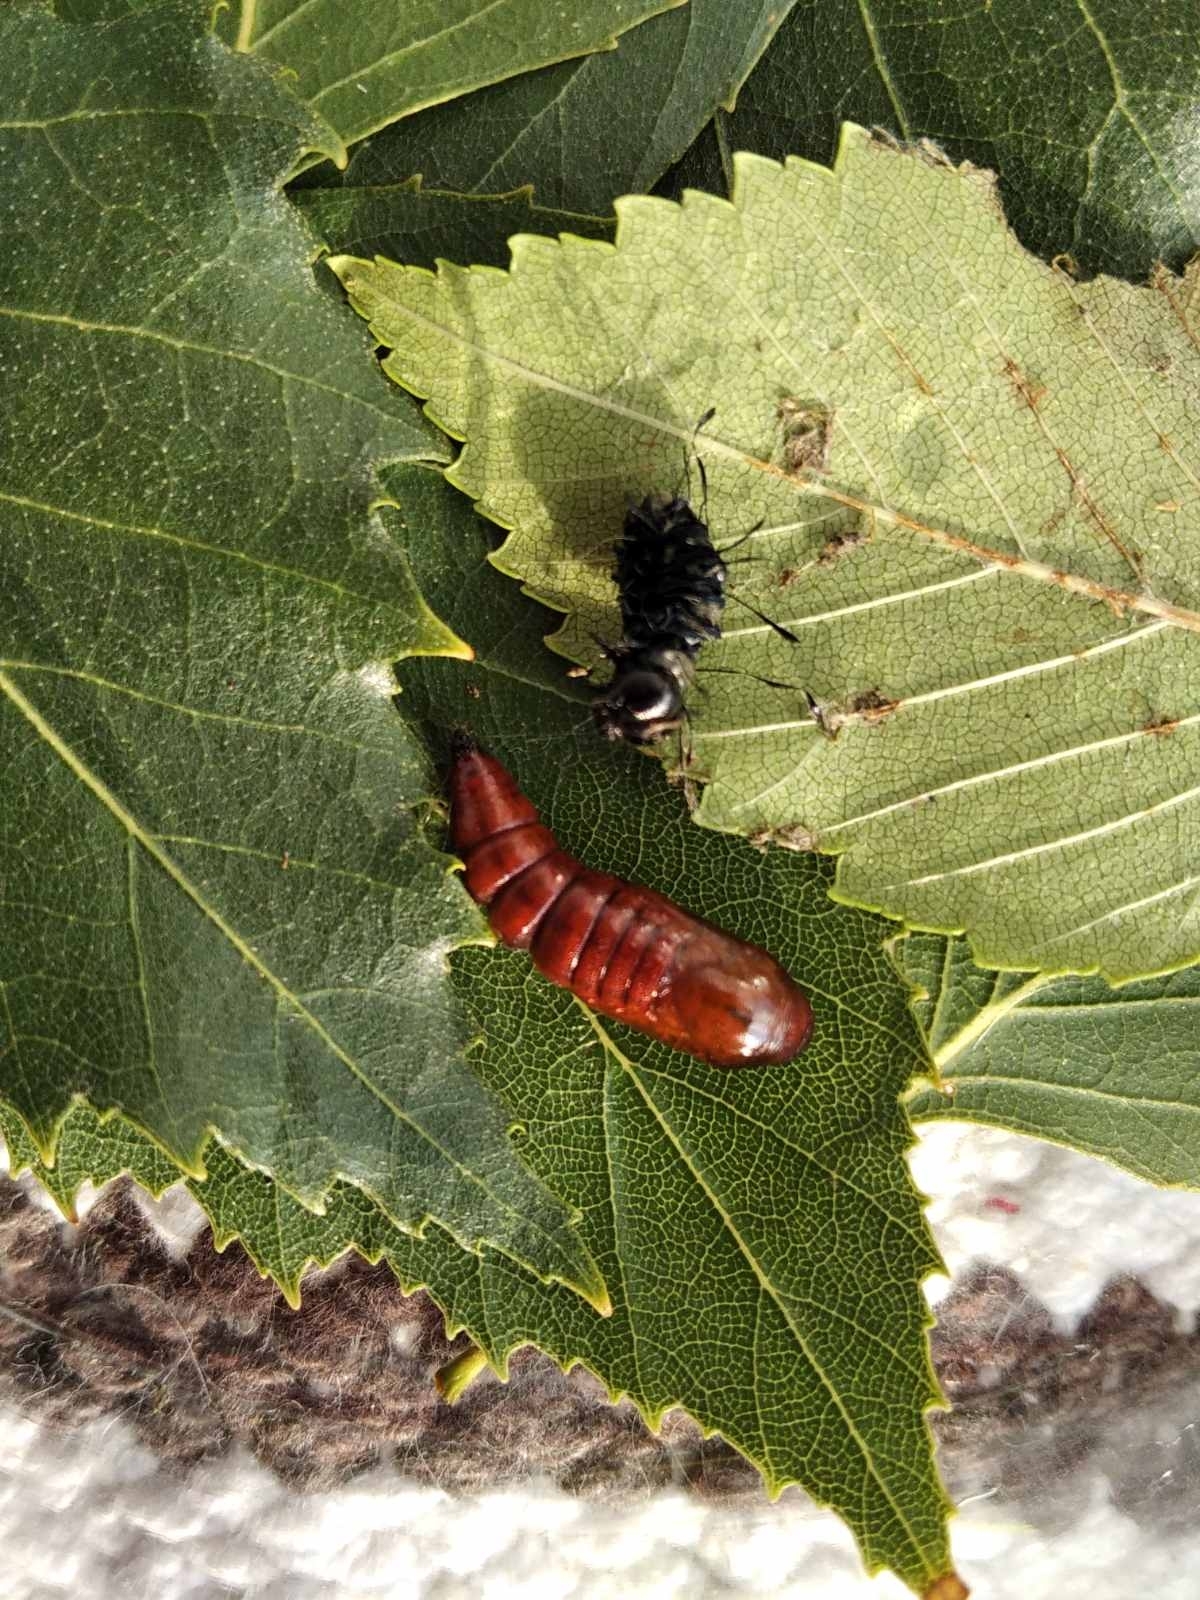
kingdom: Animalia
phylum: Arthropoda
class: Insecta
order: Lepidoptera
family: Noctuidae
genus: Acronicta
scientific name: Acronicta alni
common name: Alder moth
